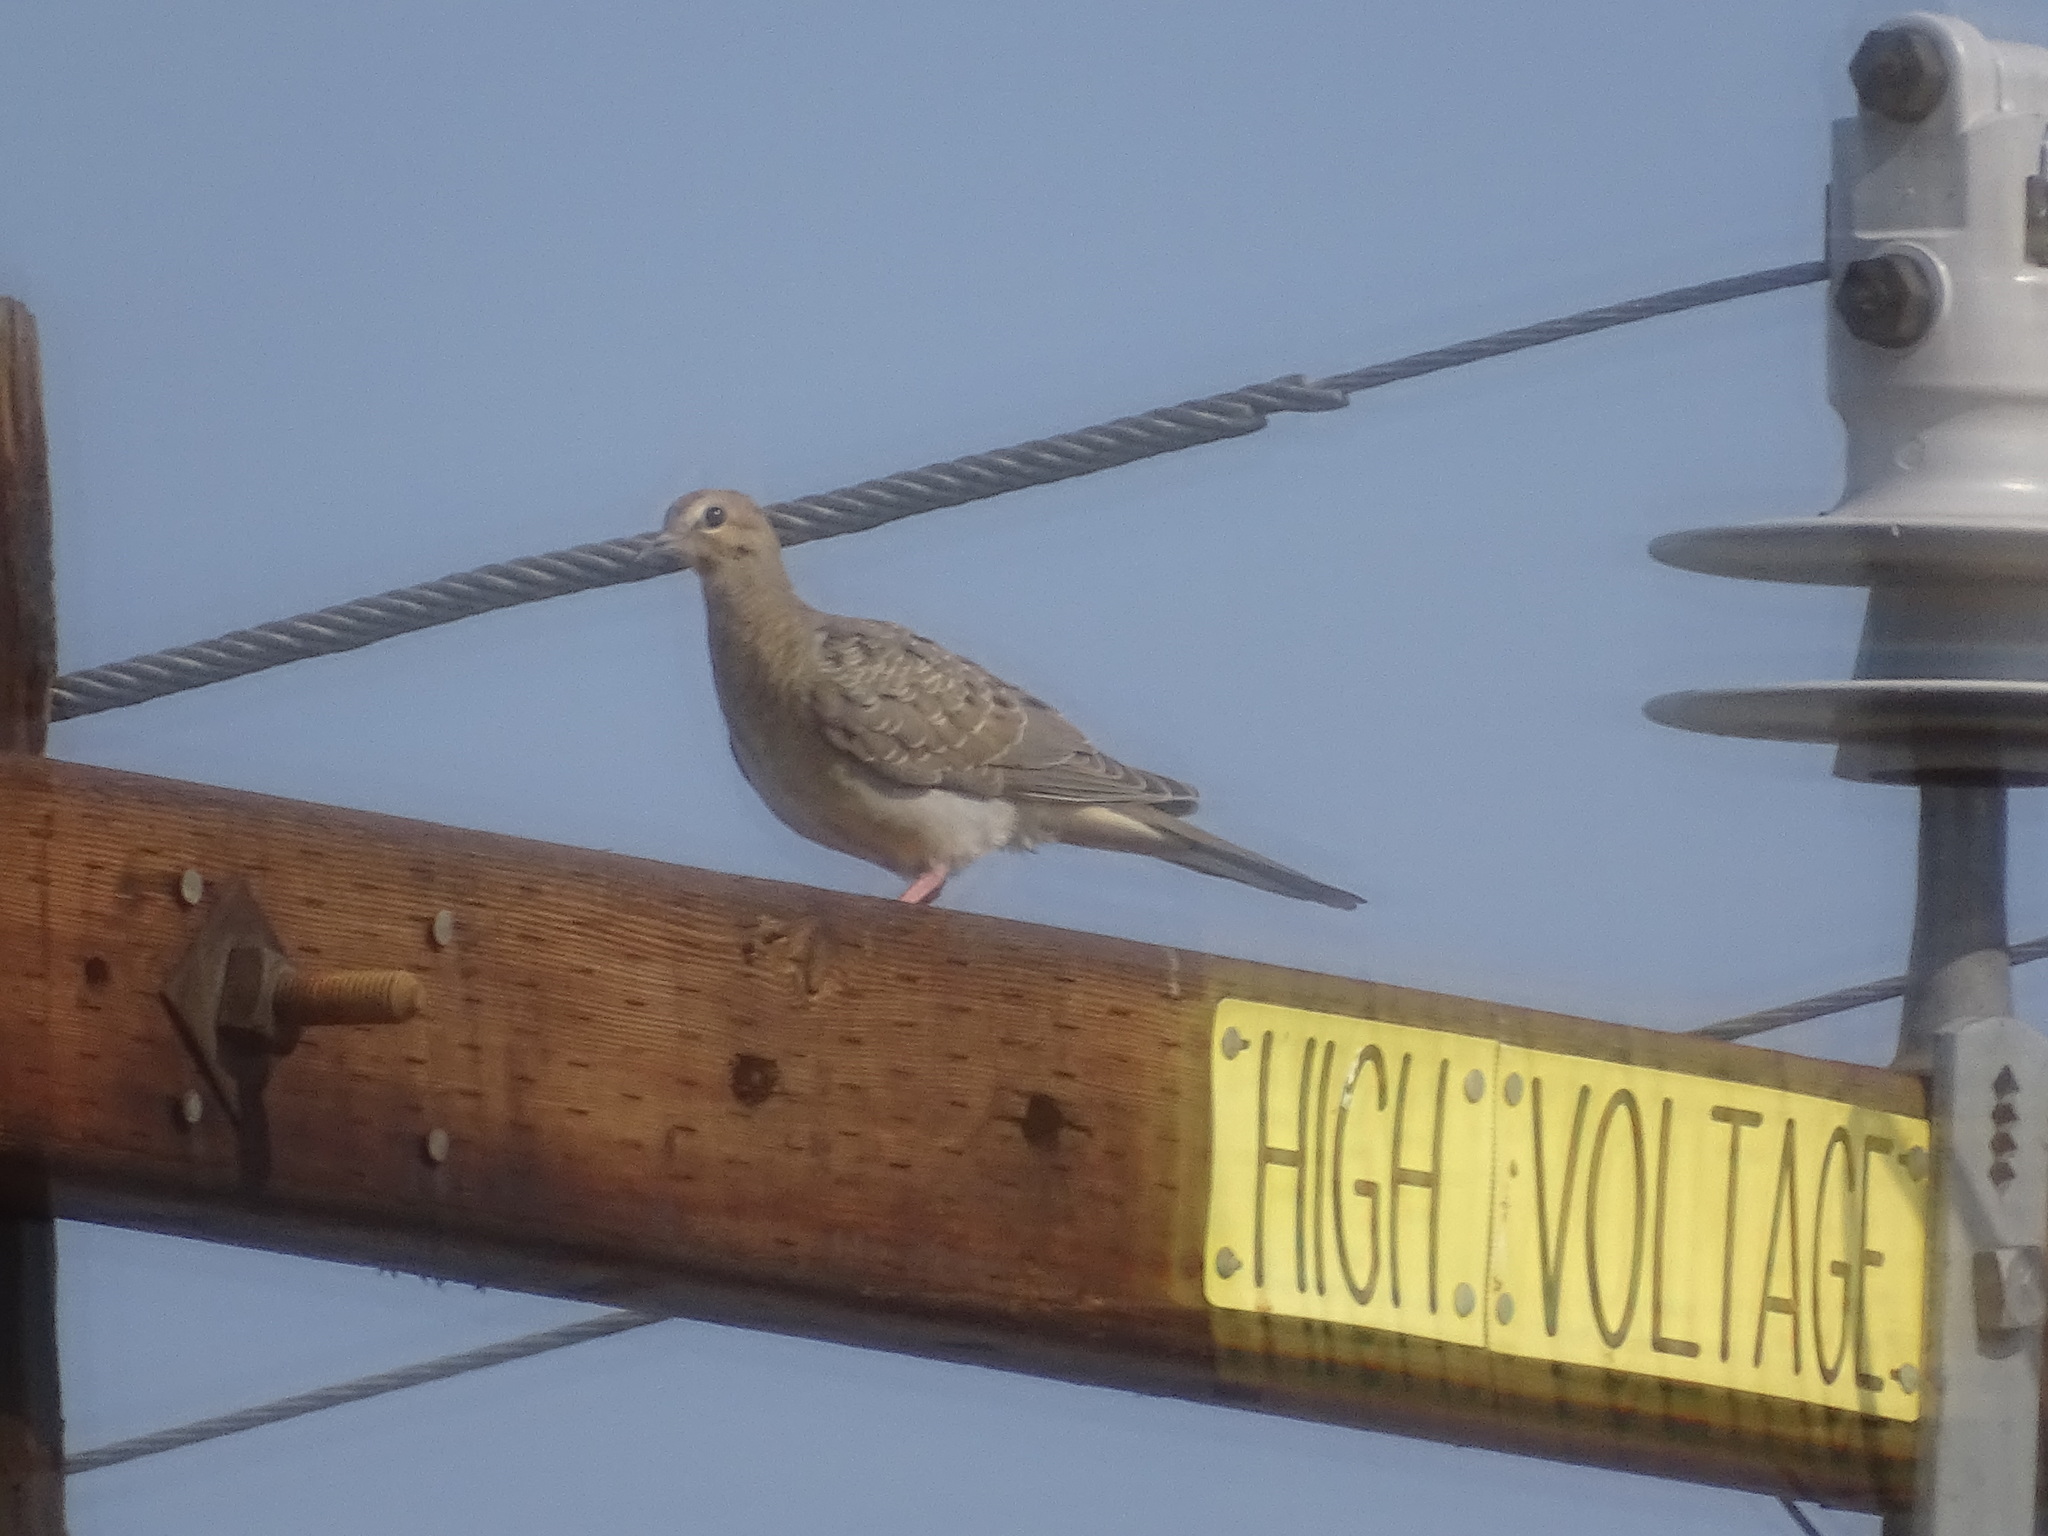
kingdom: Animalia
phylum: Chordata
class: Aves
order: Columbiformes
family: Columbidae
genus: Zenaida
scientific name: Zenaida macroura
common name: Mourning dove
